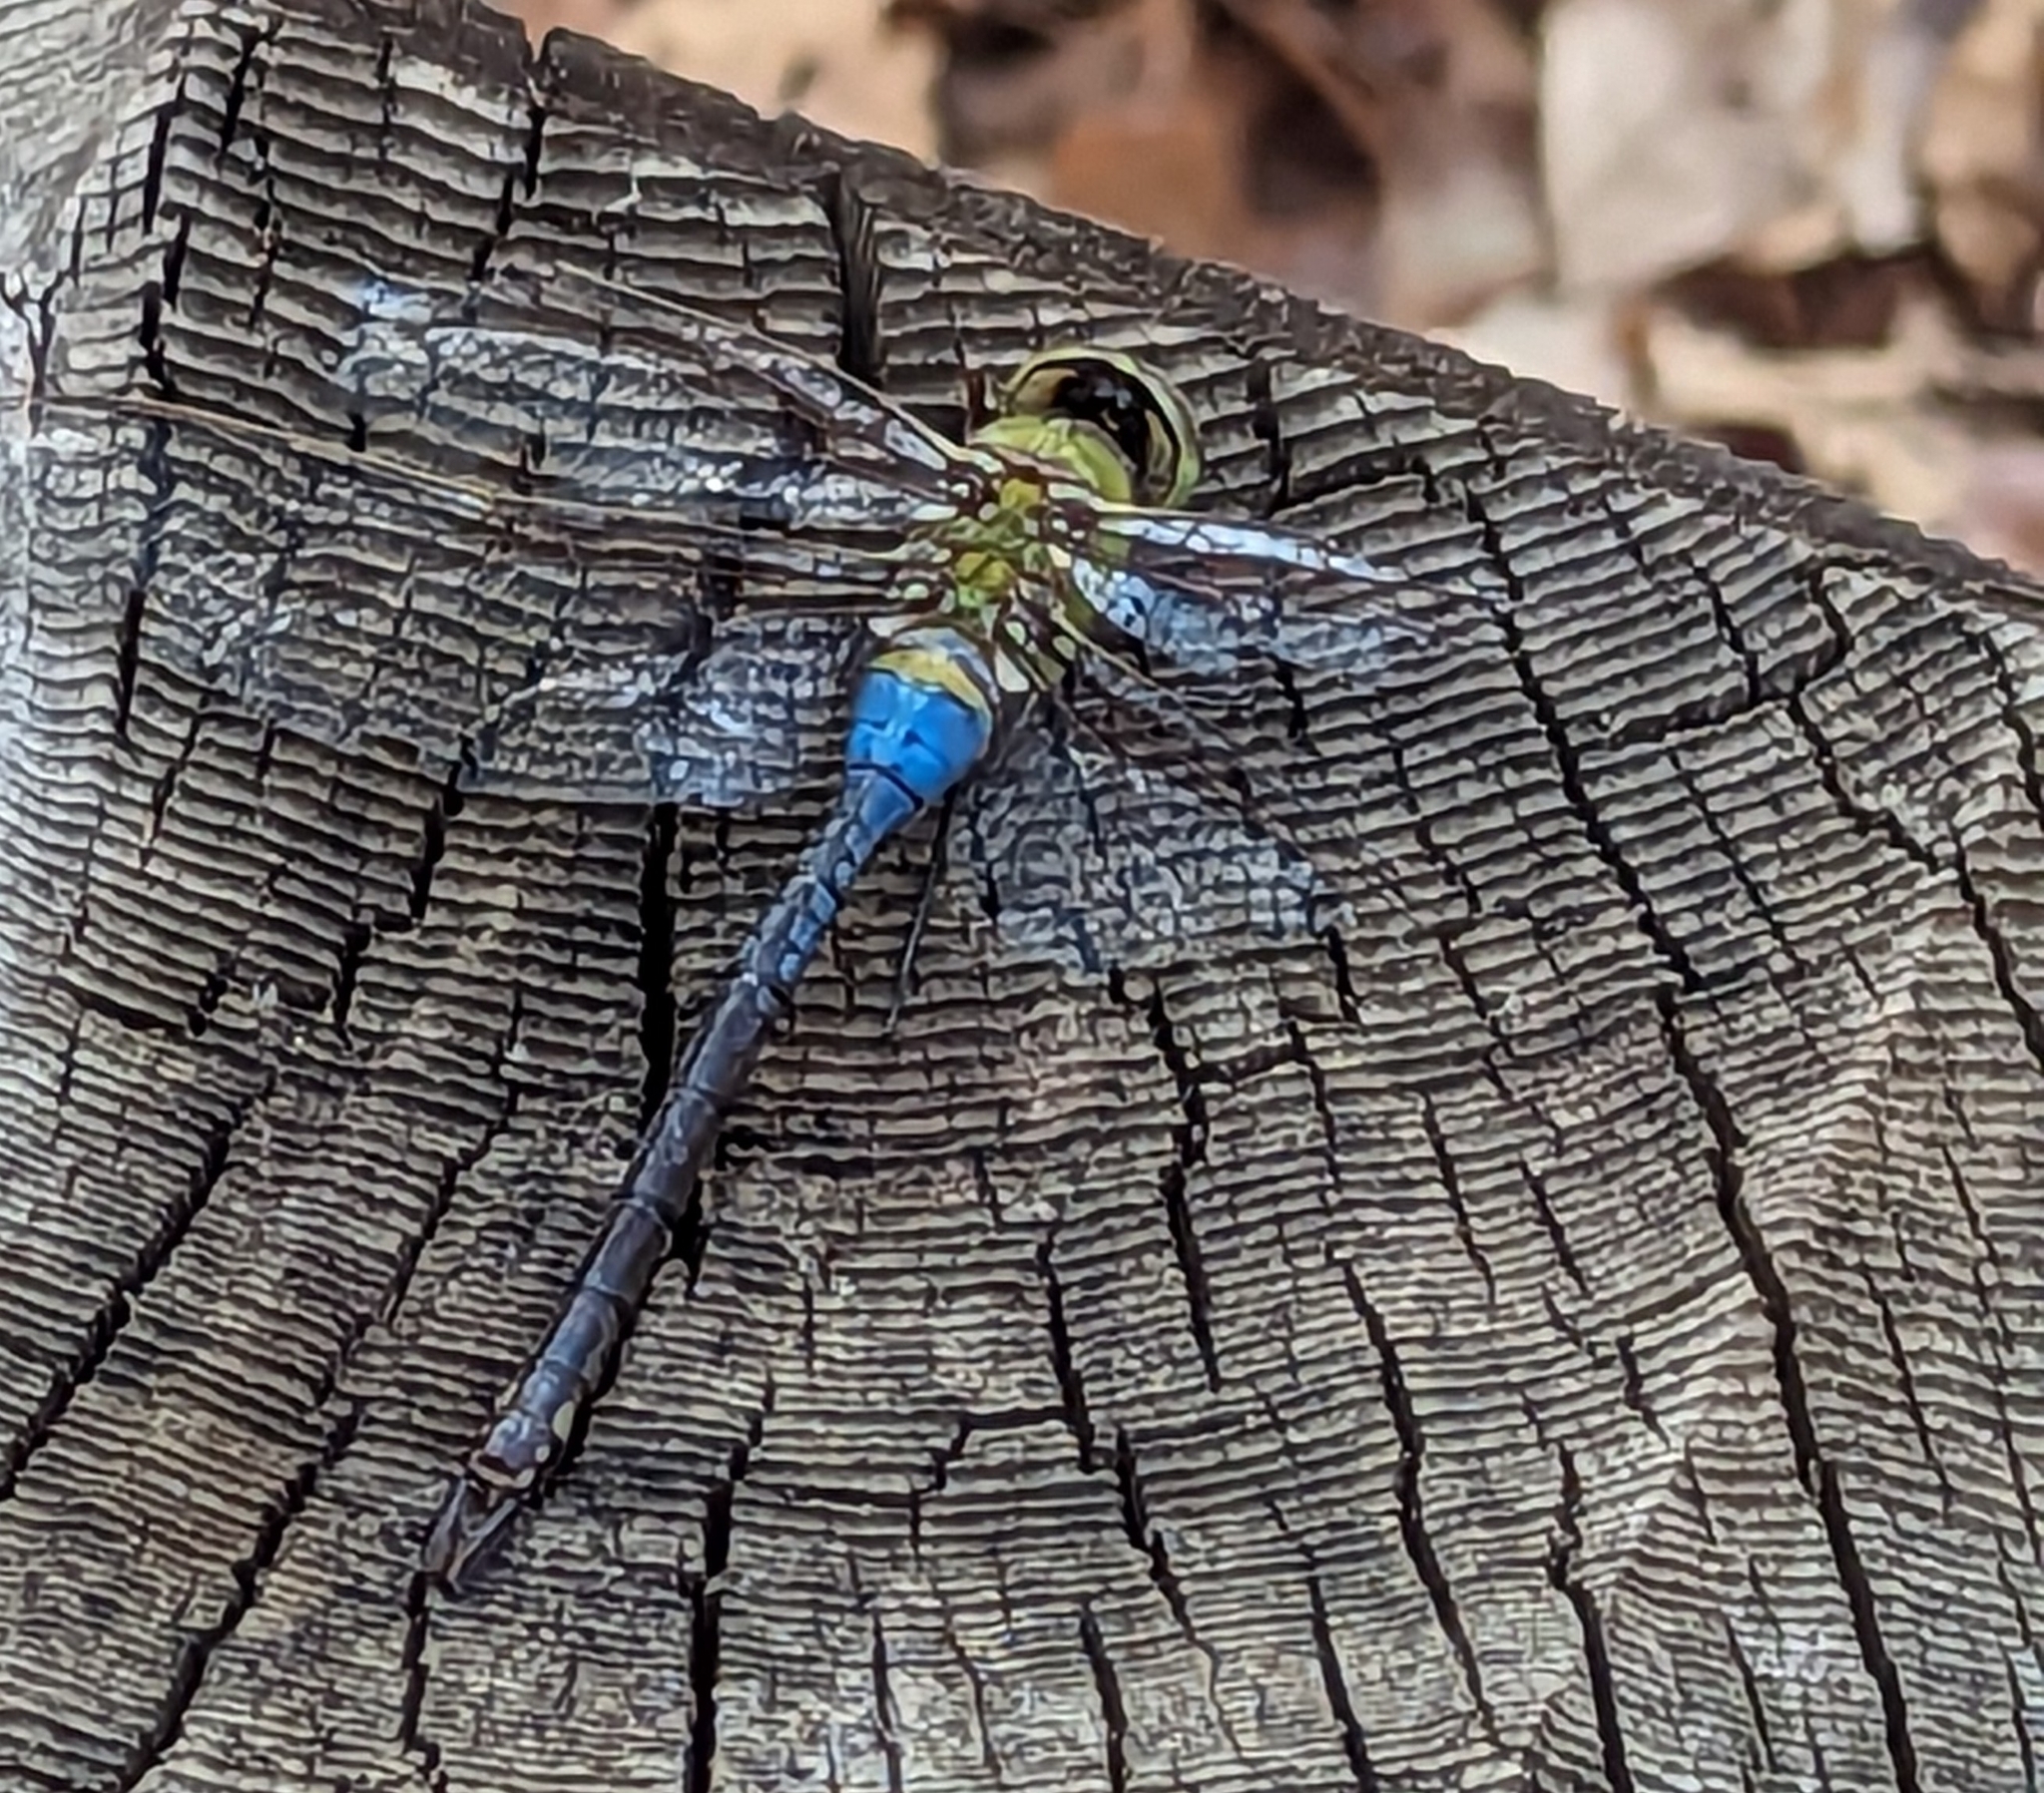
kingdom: Animalia
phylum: Arthropoda
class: Insecta
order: Odonata
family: Aeshnidae
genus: Anax
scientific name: Anax junius
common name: Common green darner
